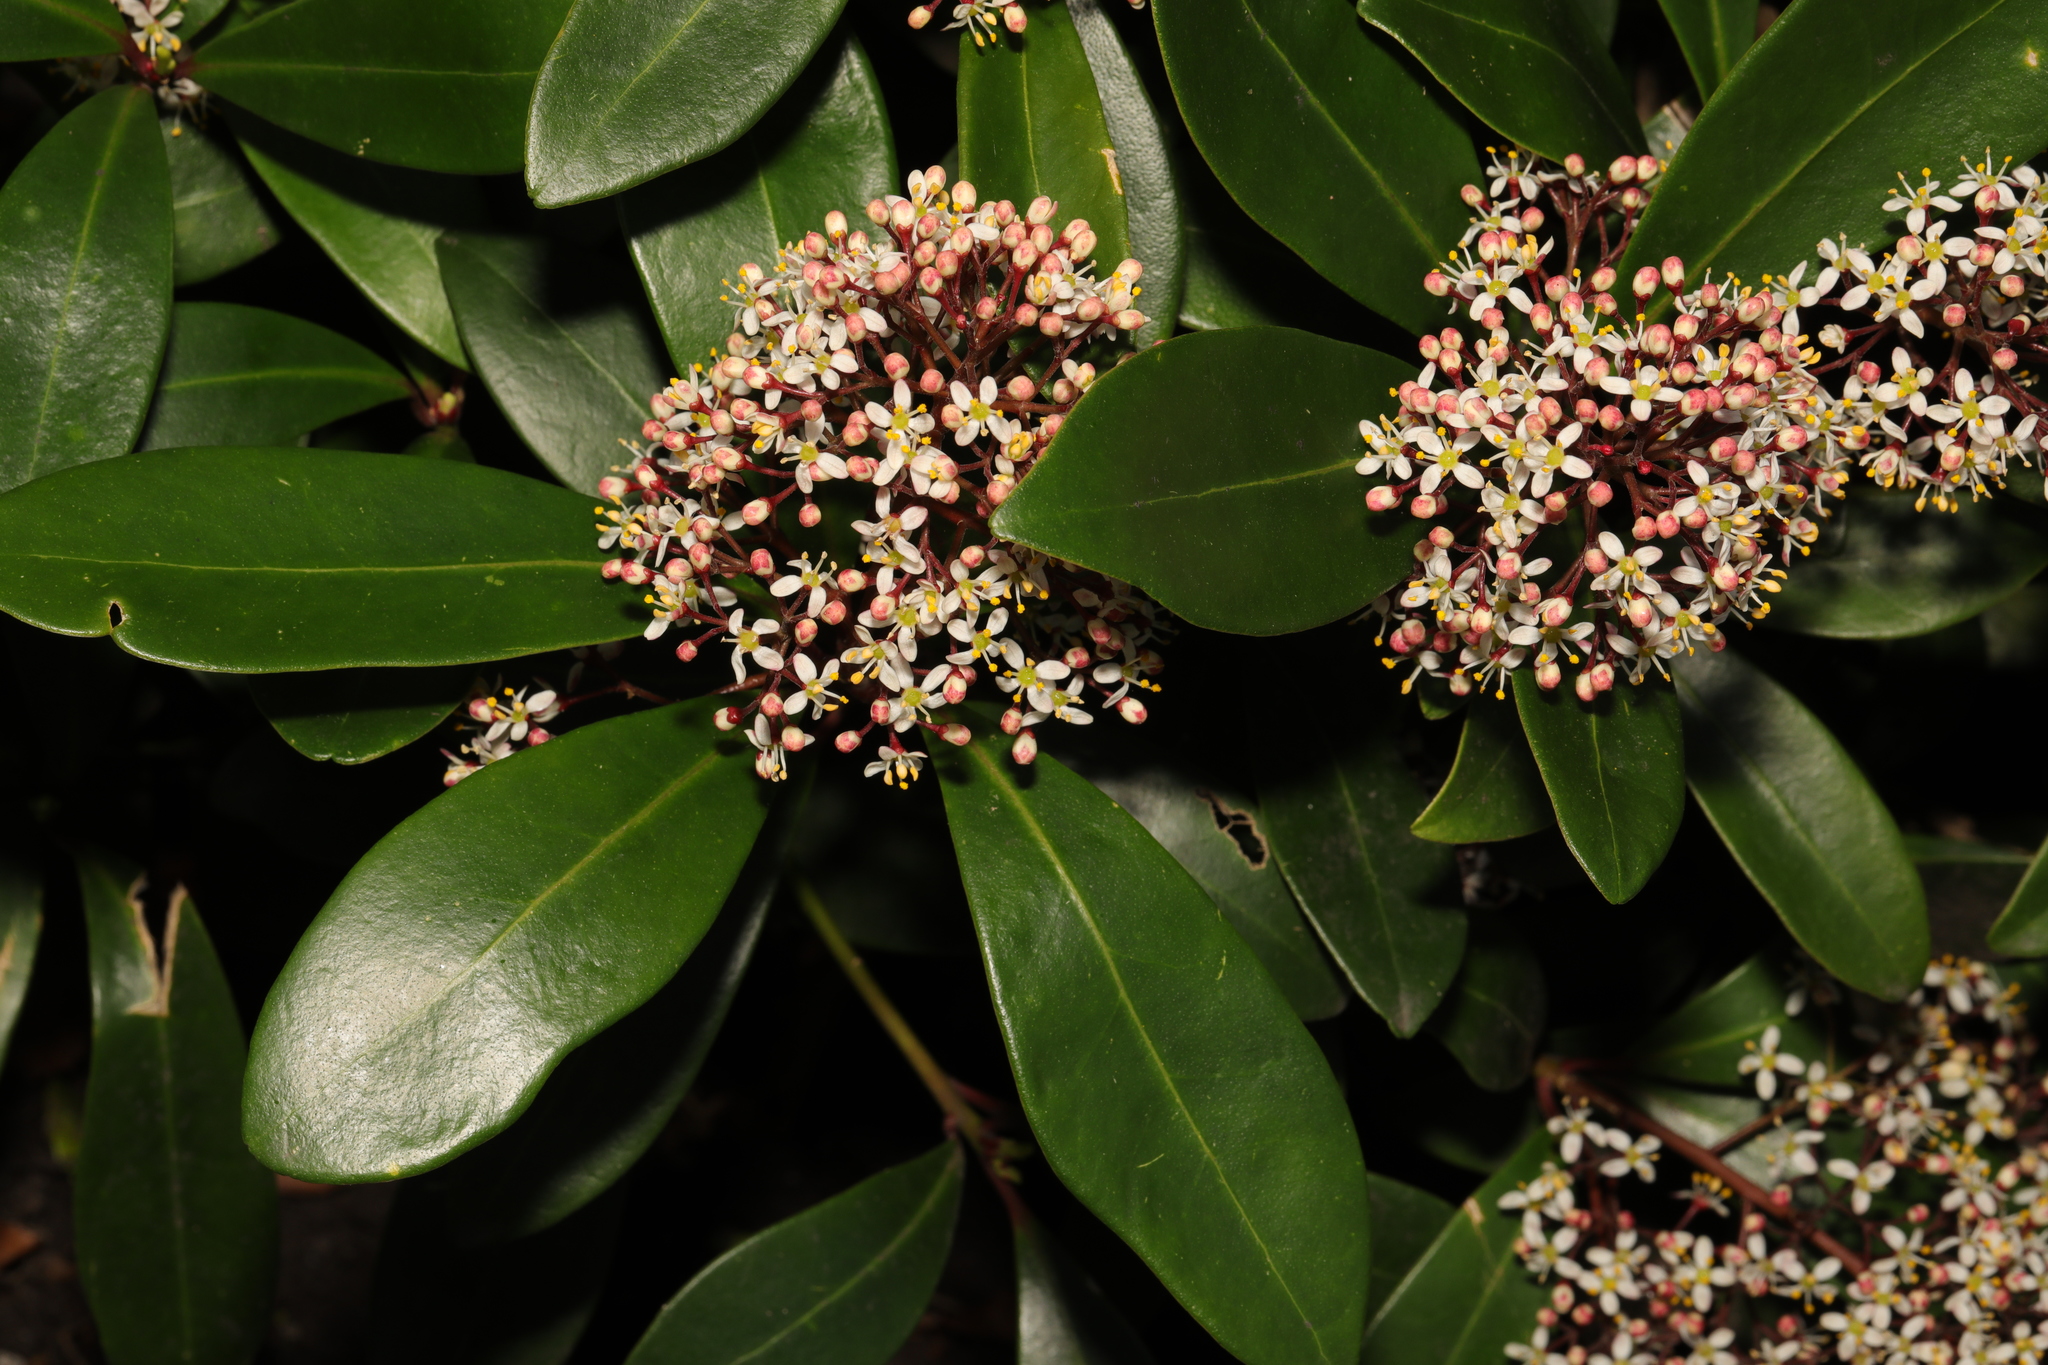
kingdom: Plantae
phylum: Tracheophyta
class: Magnoliopsida
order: Sapindales
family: Rutaceae
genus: Skimmia
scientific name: Skimmia japonica
